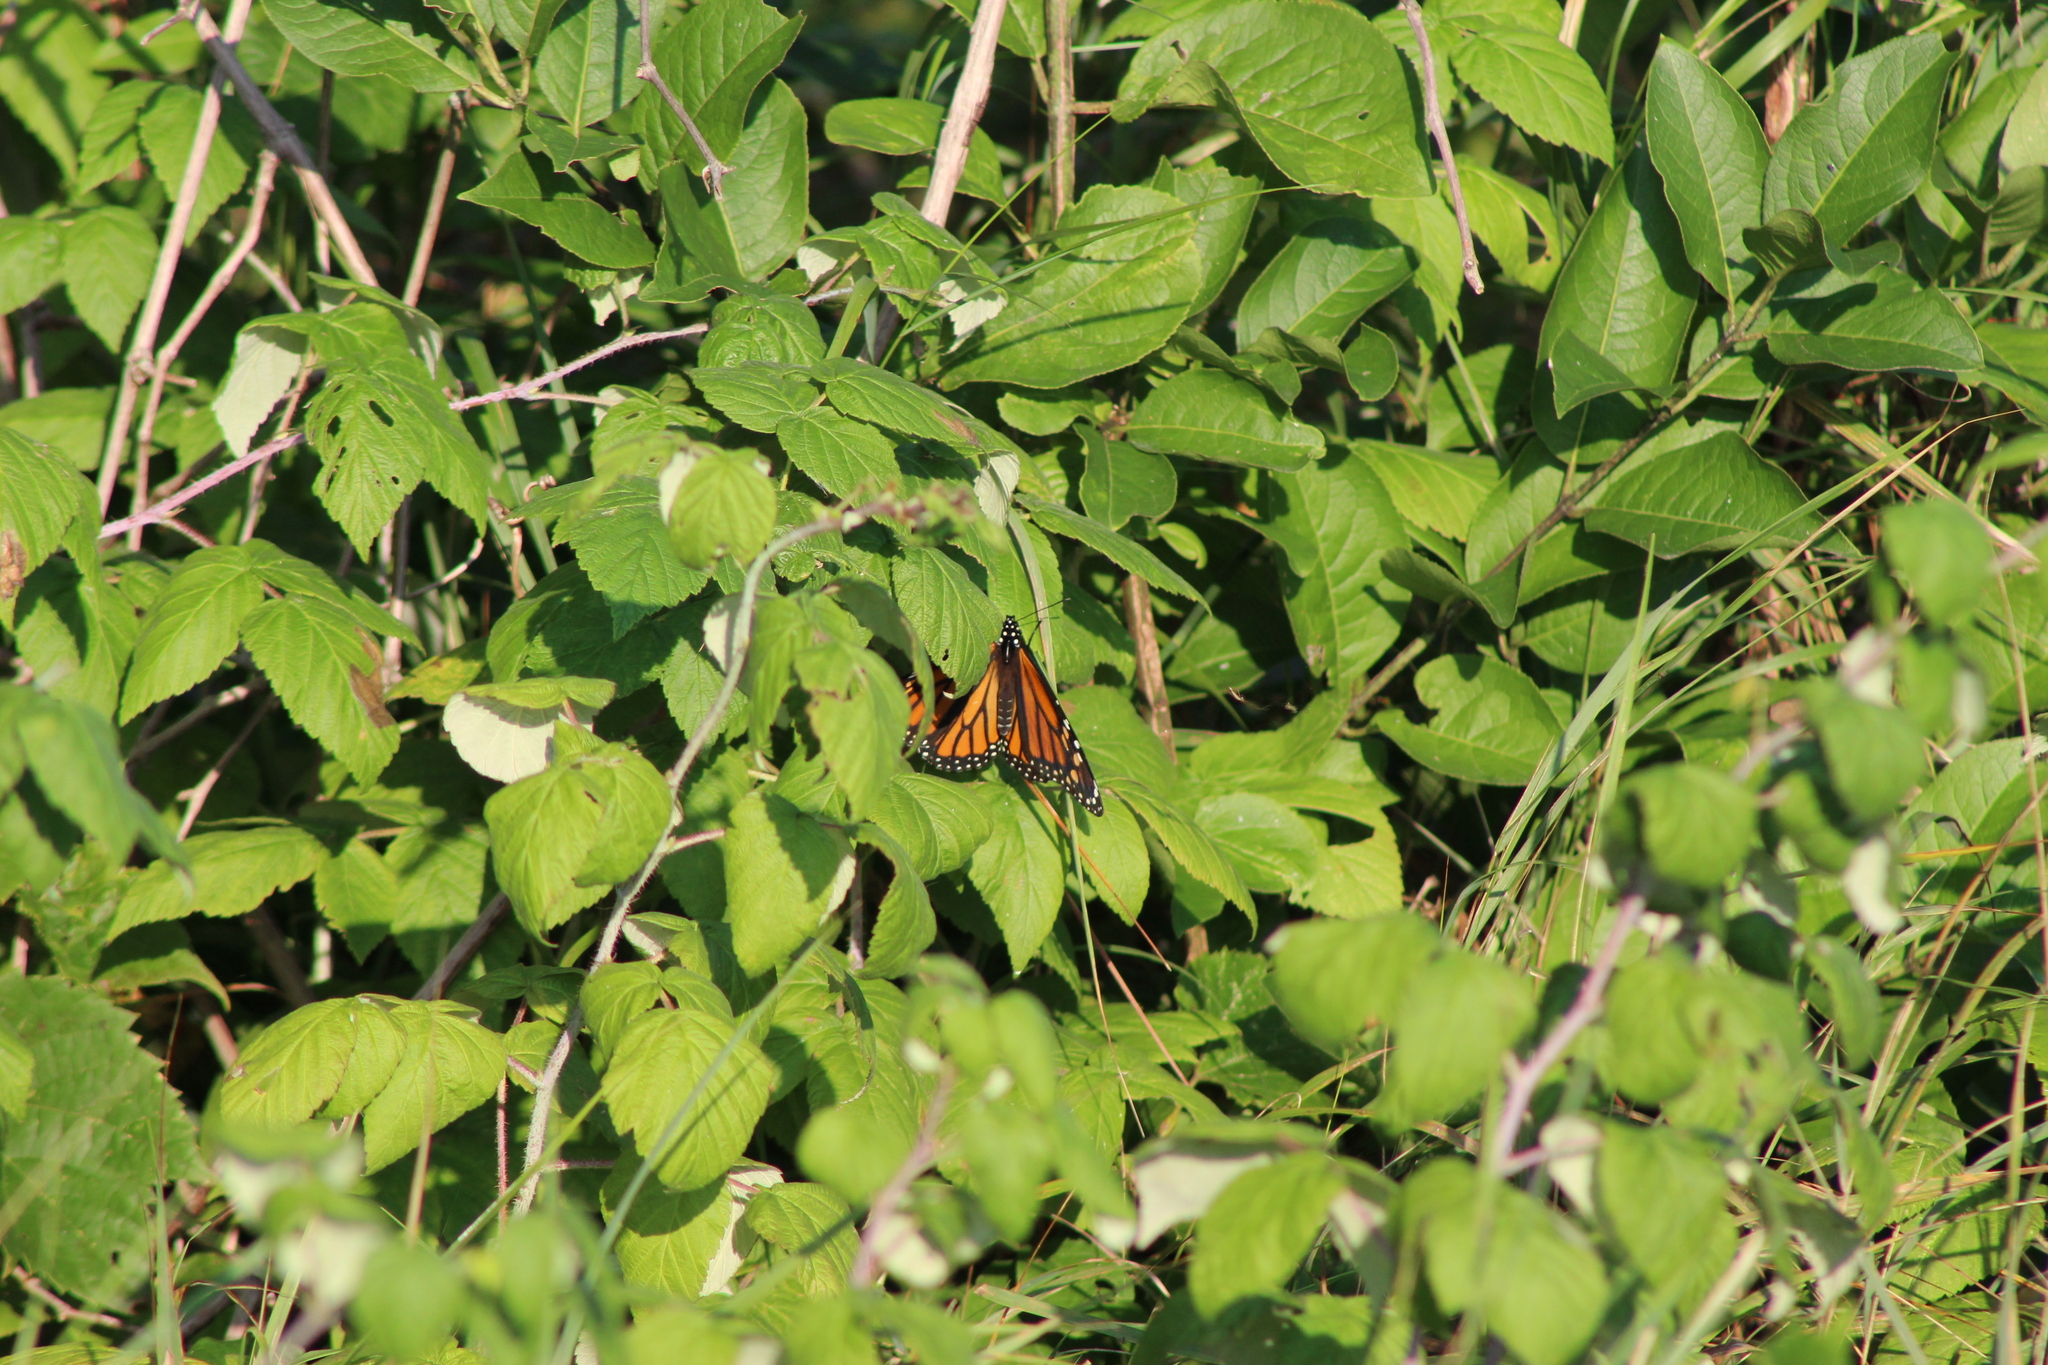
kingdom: Animalia
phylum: Arthropoda
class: Insecta
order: Lepidoptera
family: Nymphalidae
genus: Danaus
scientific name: Danaus plexippus
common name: Monarch
